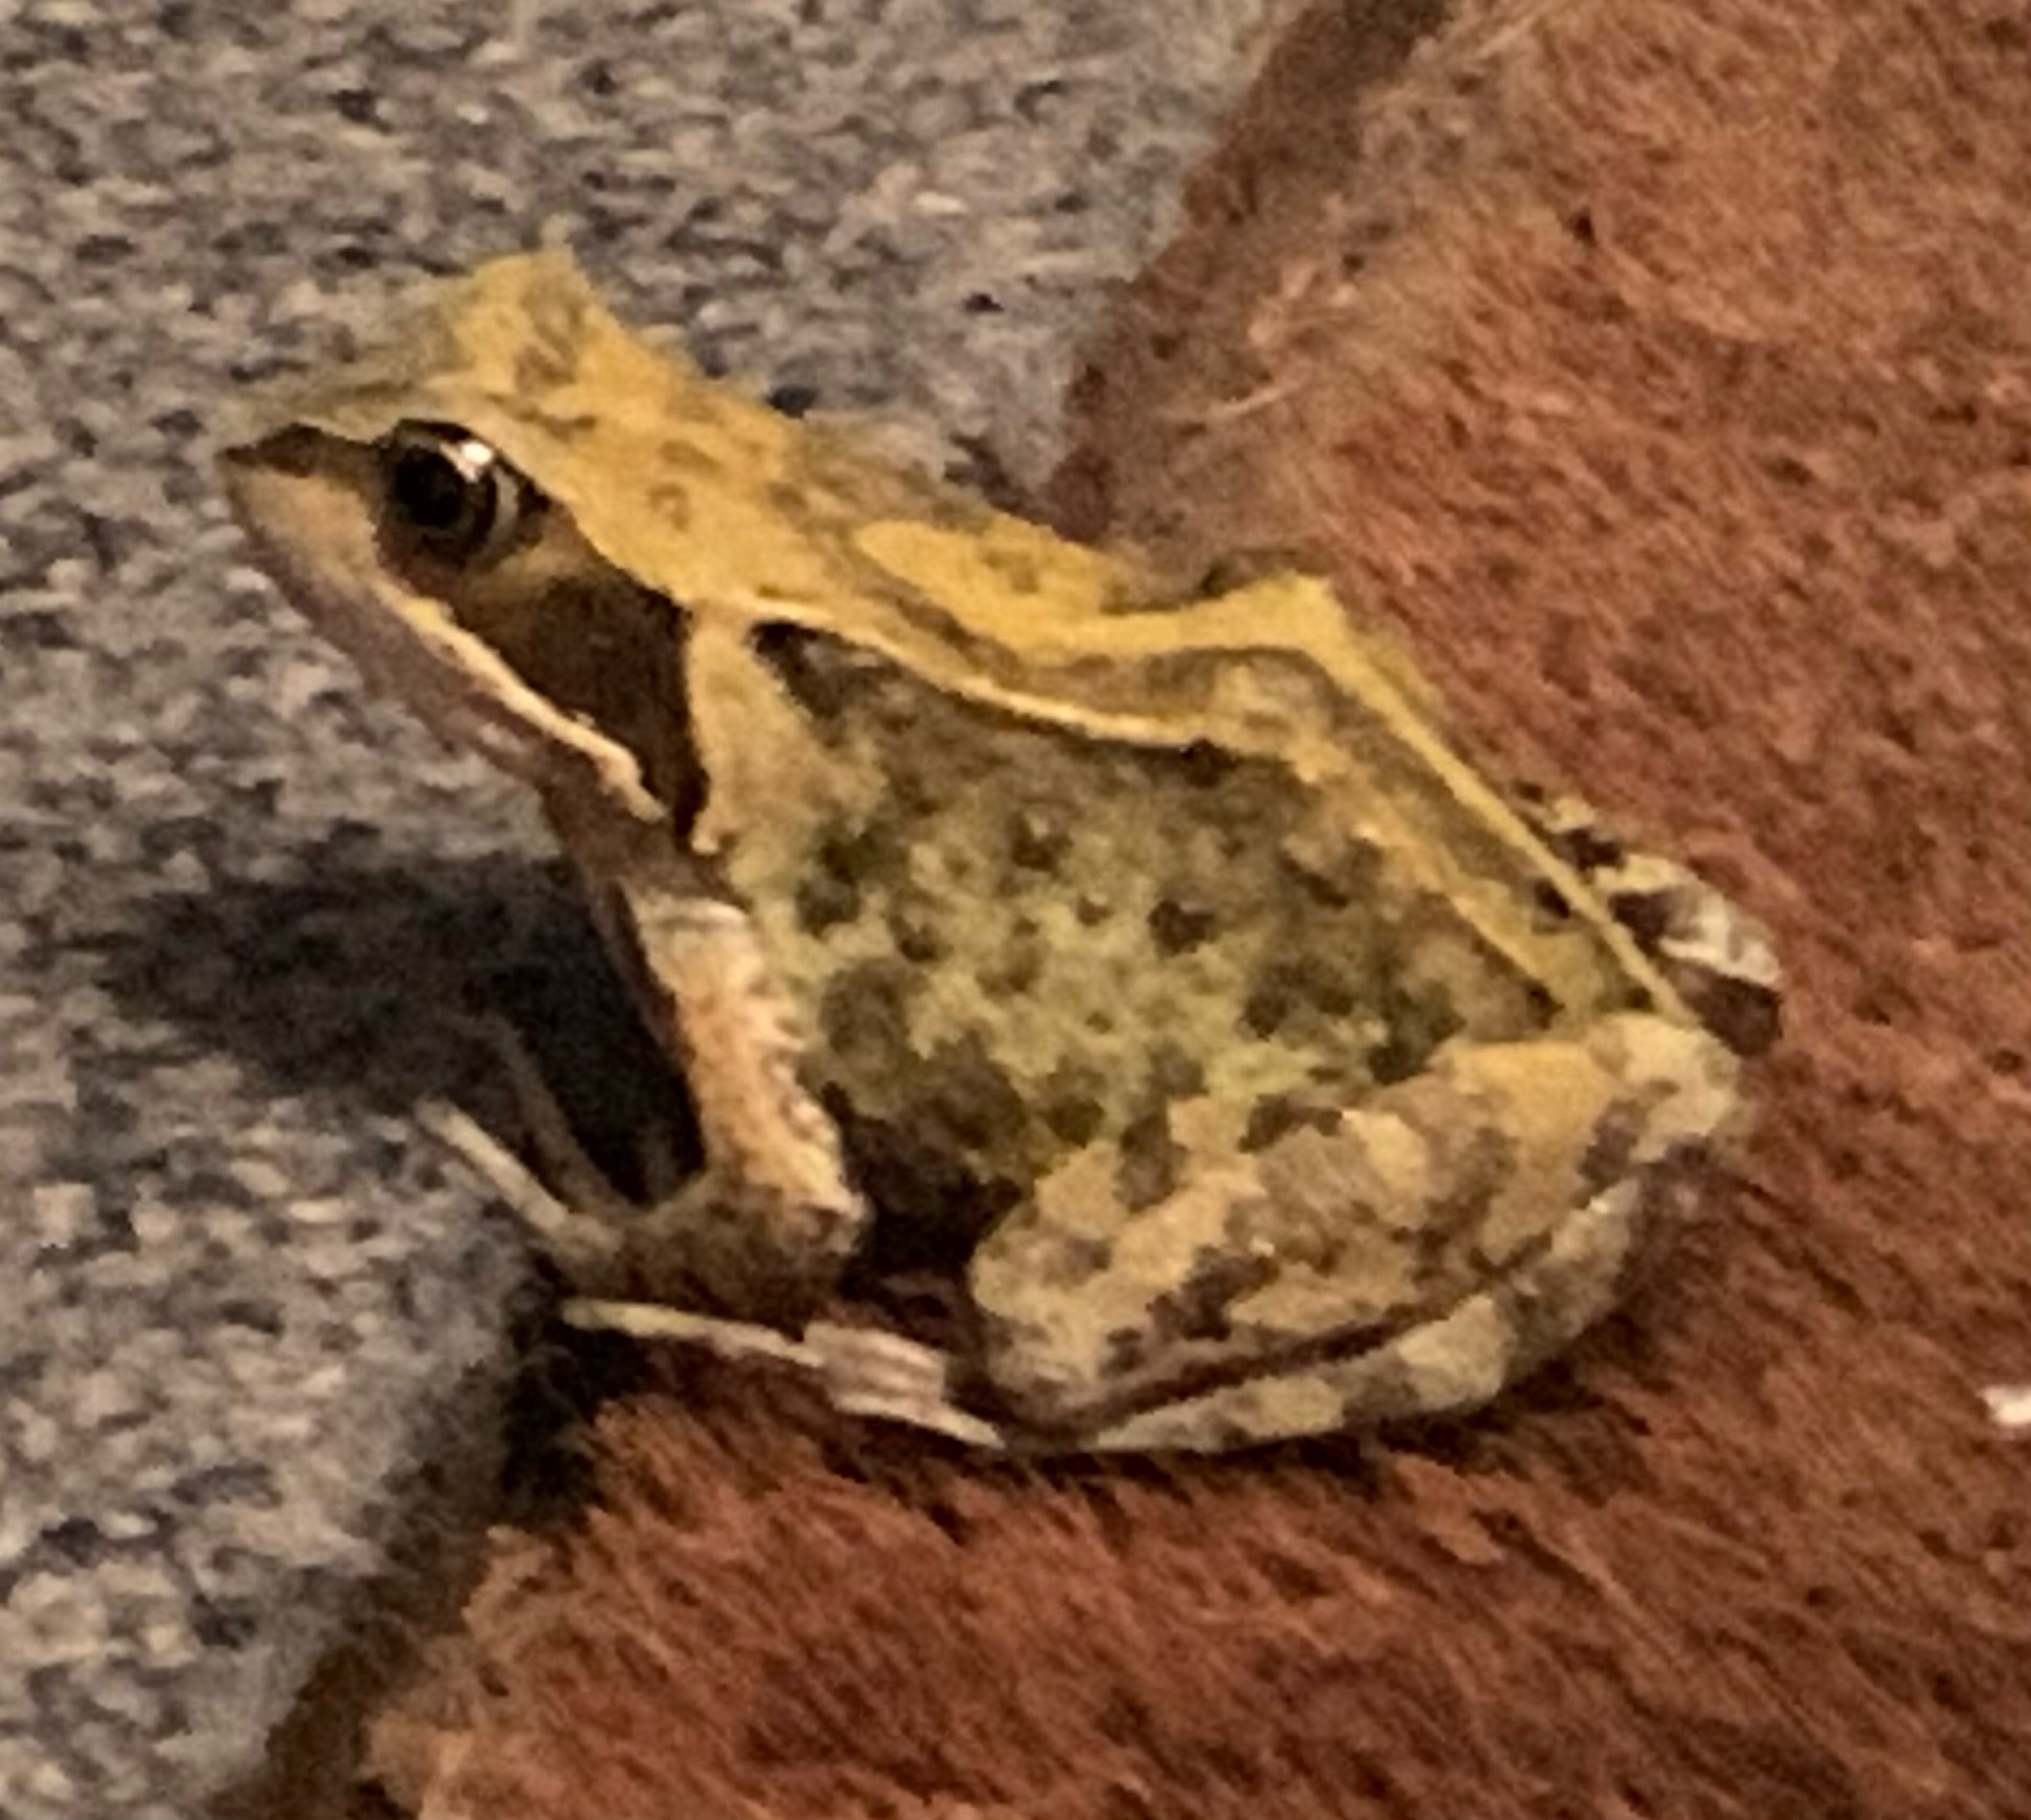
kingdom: Animalia
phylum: Chordata
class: Amphibia
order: Anura
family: Ranidae
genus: Rana
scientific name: Rana temporaria
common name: Common frog
